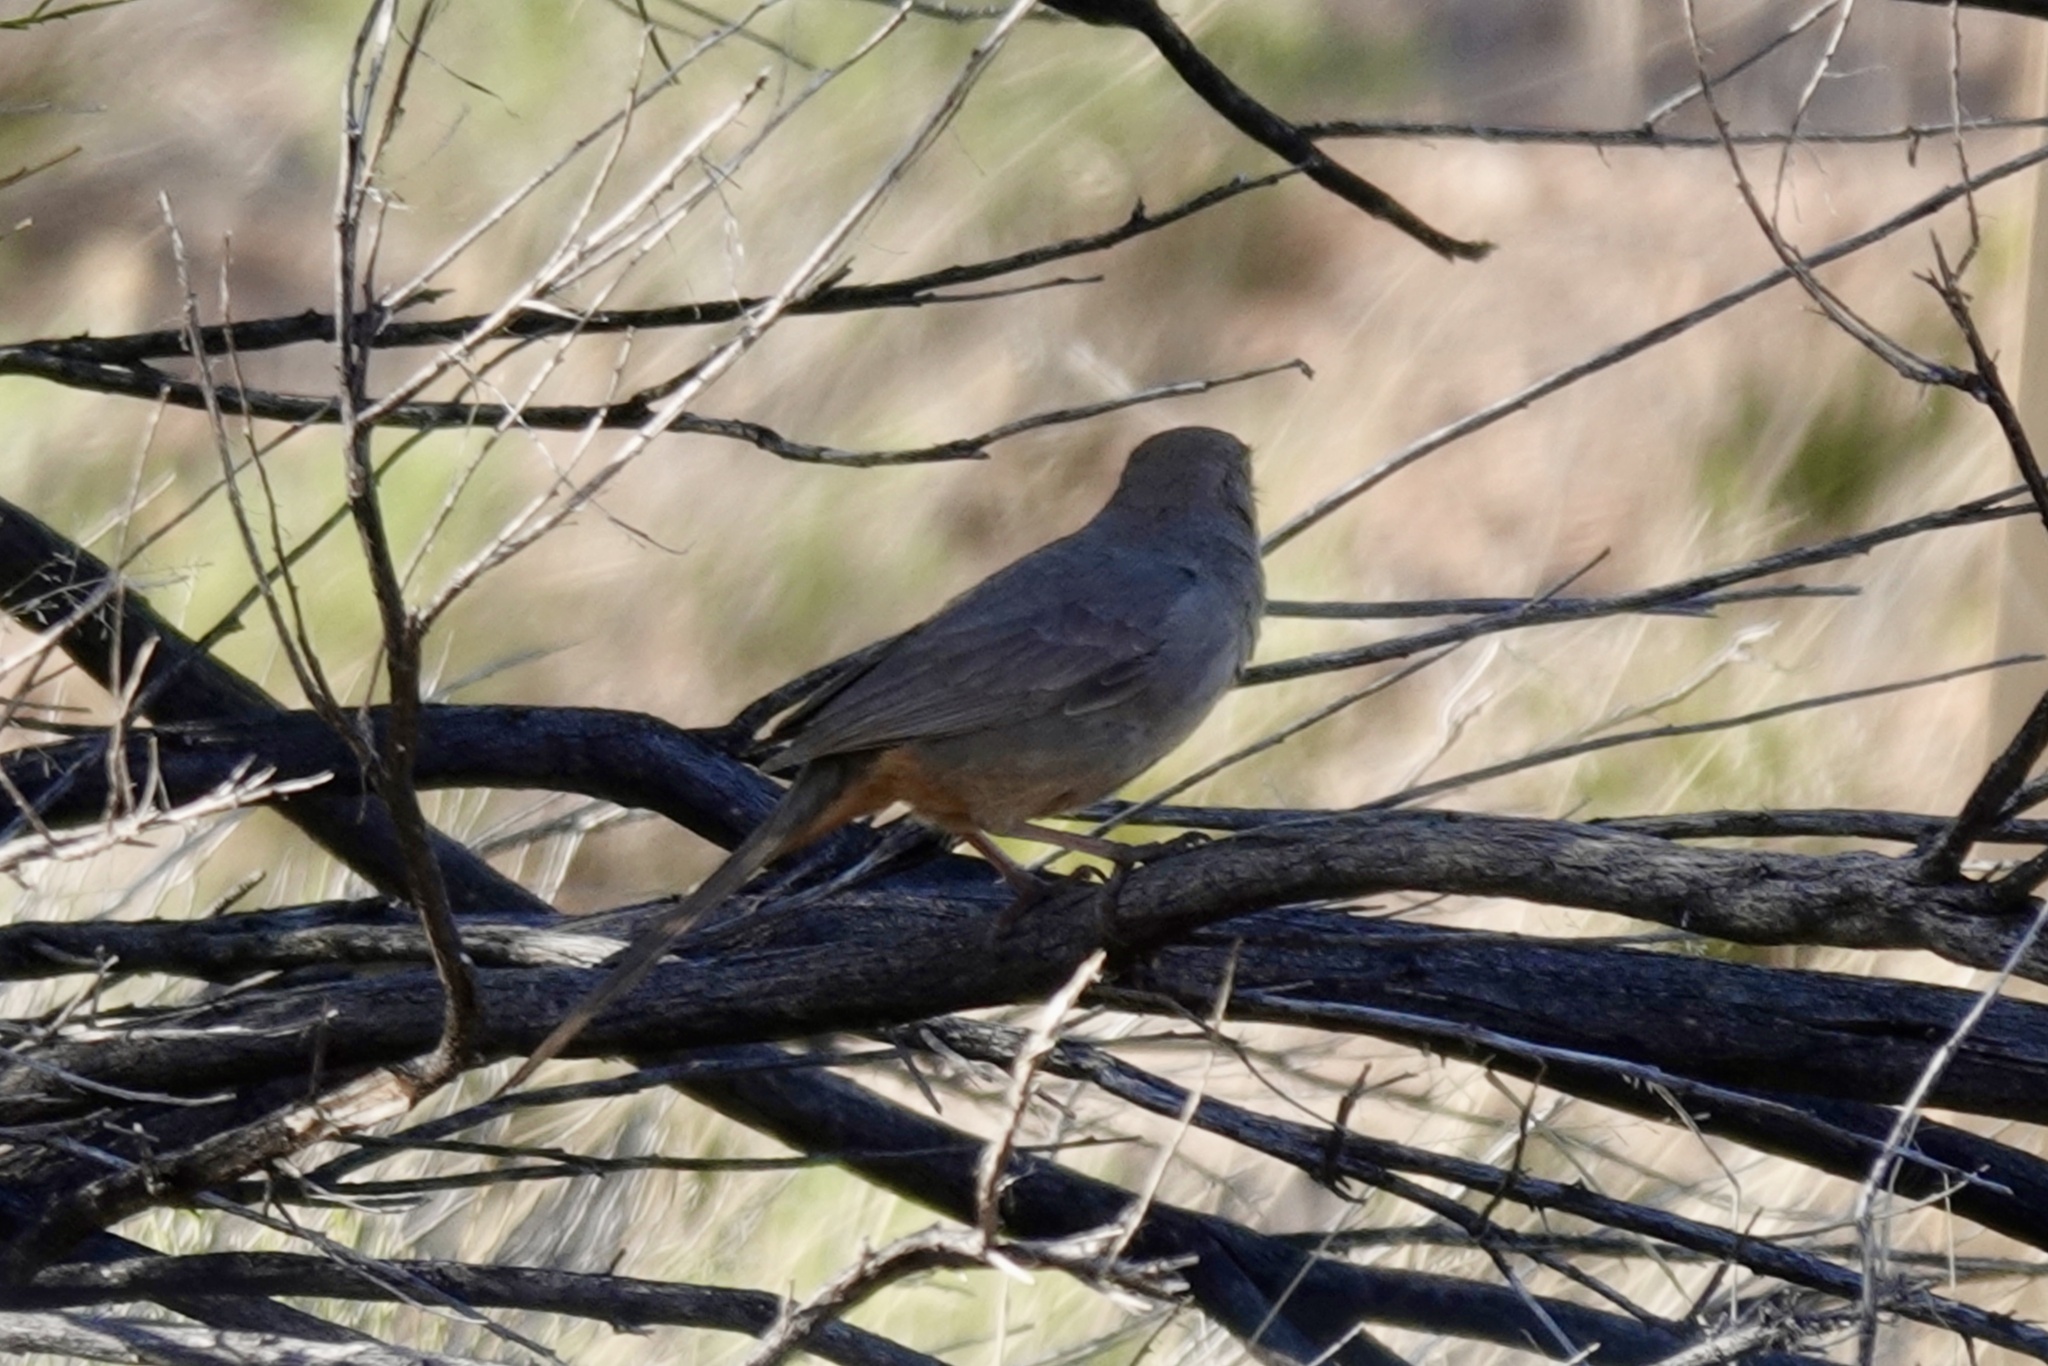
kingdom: Animalia
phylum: Chordata
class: Aves
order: Passeriformes
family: Passerellidae
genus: Melozone
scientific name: Melozone fusca
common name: Canyon towhee
